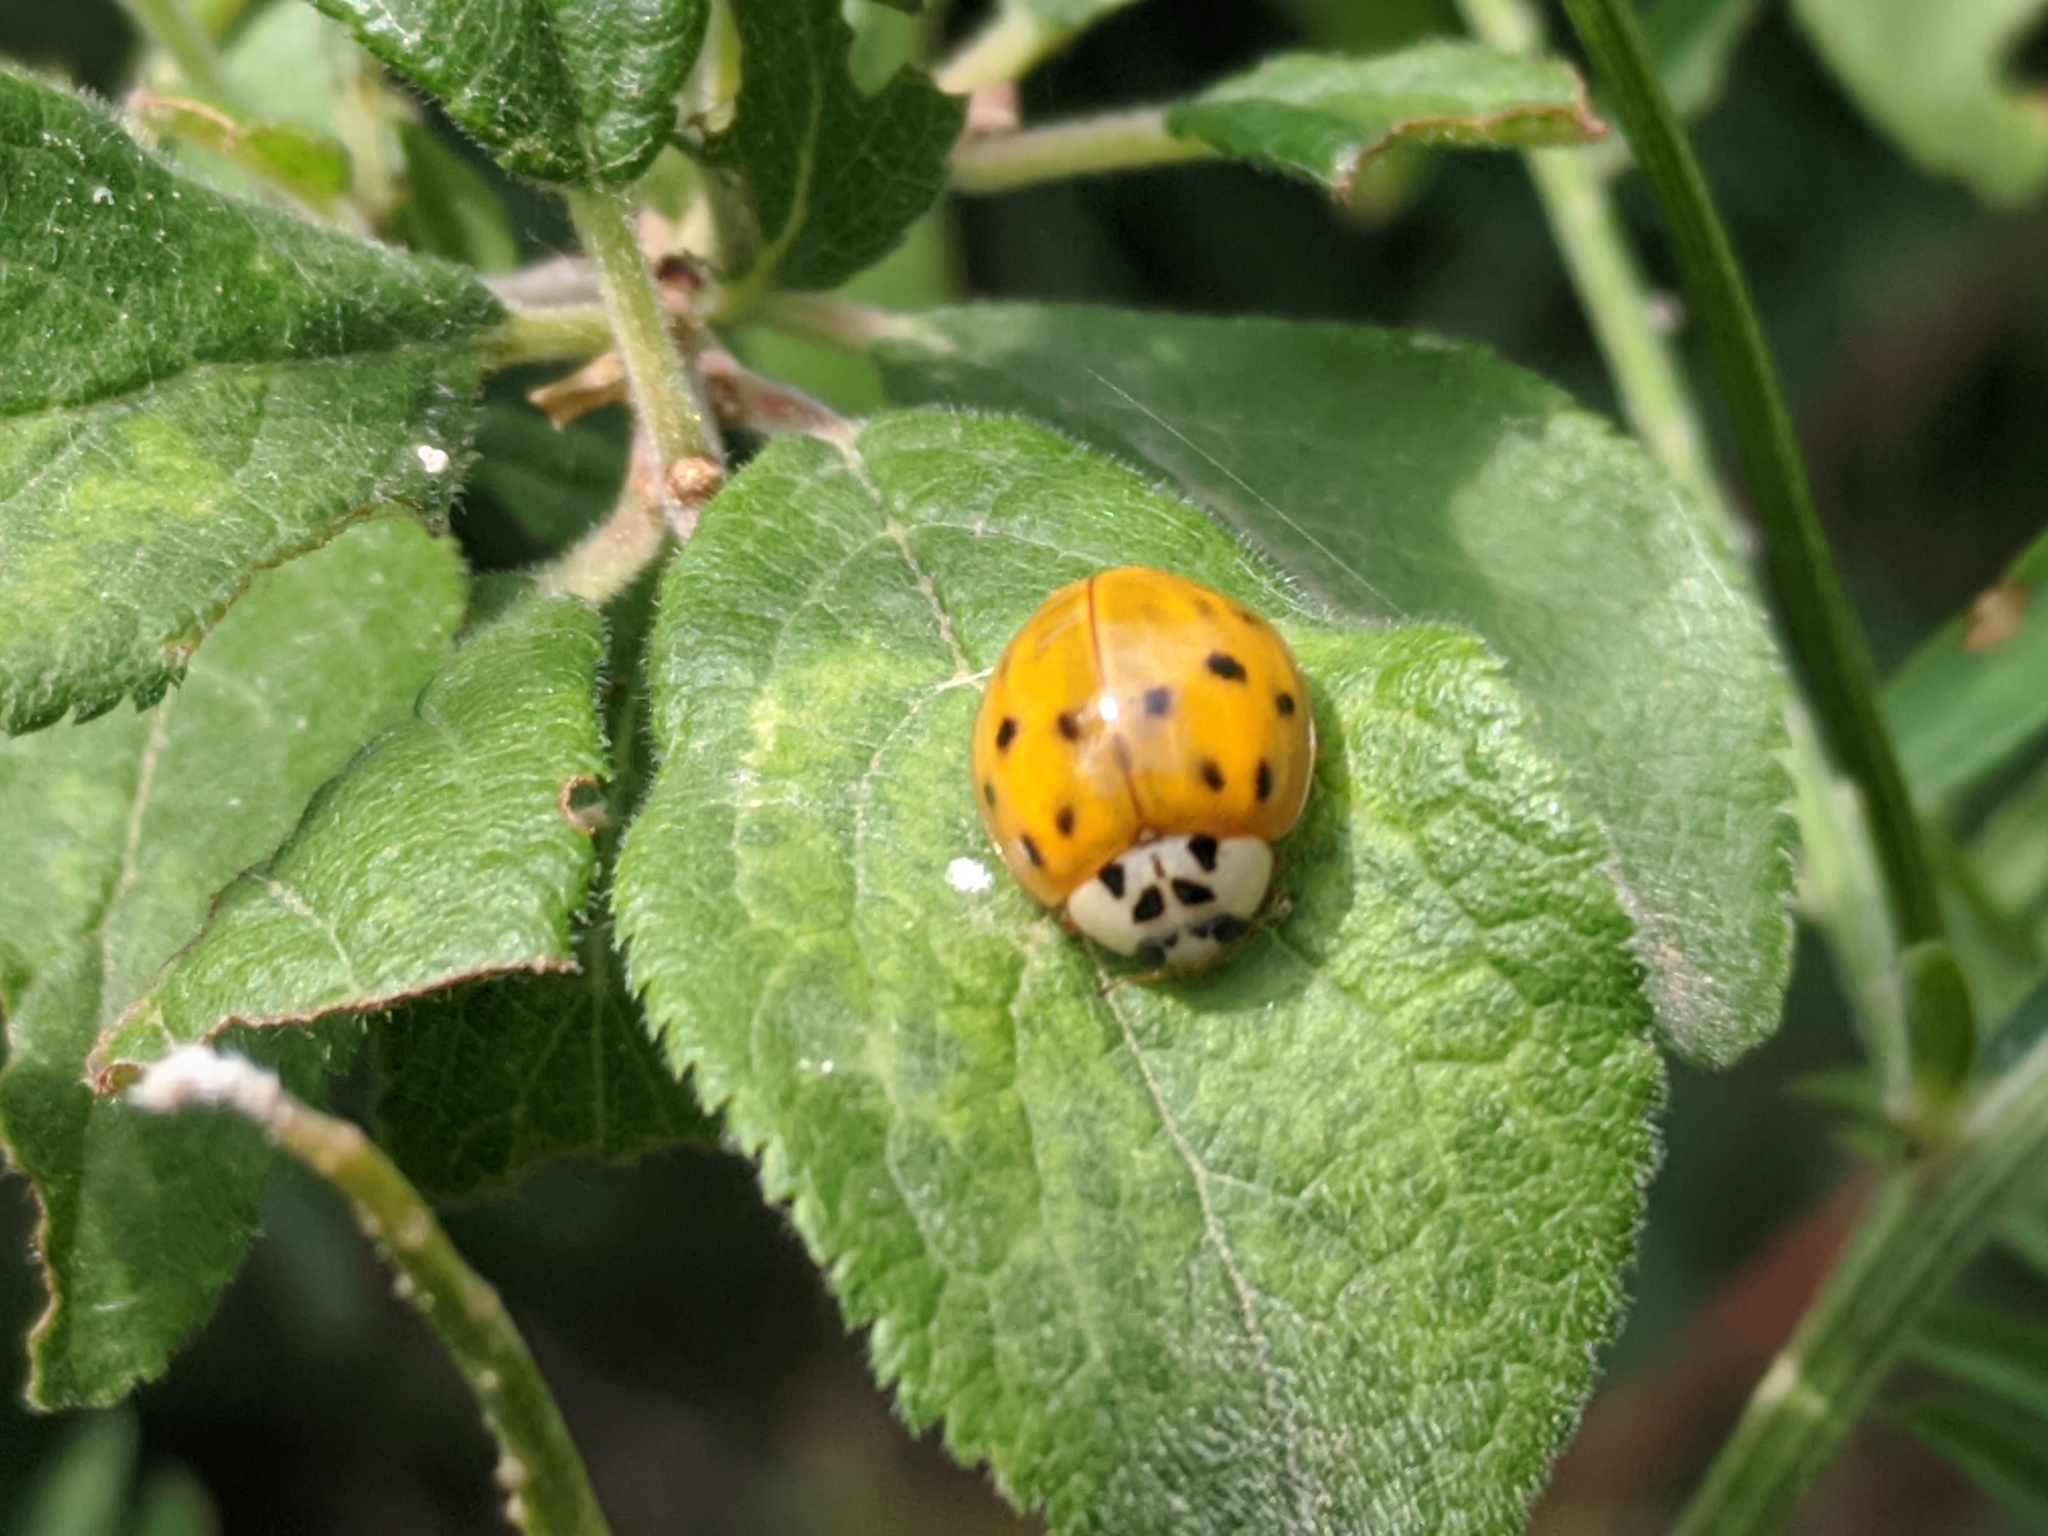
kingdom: Animalia
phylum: Arthropoda
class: Insecta
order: Coleoptera
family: Coccinellidae
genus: Harmonia
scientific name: Harmonia axyridis
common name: Harlequin ladybird
